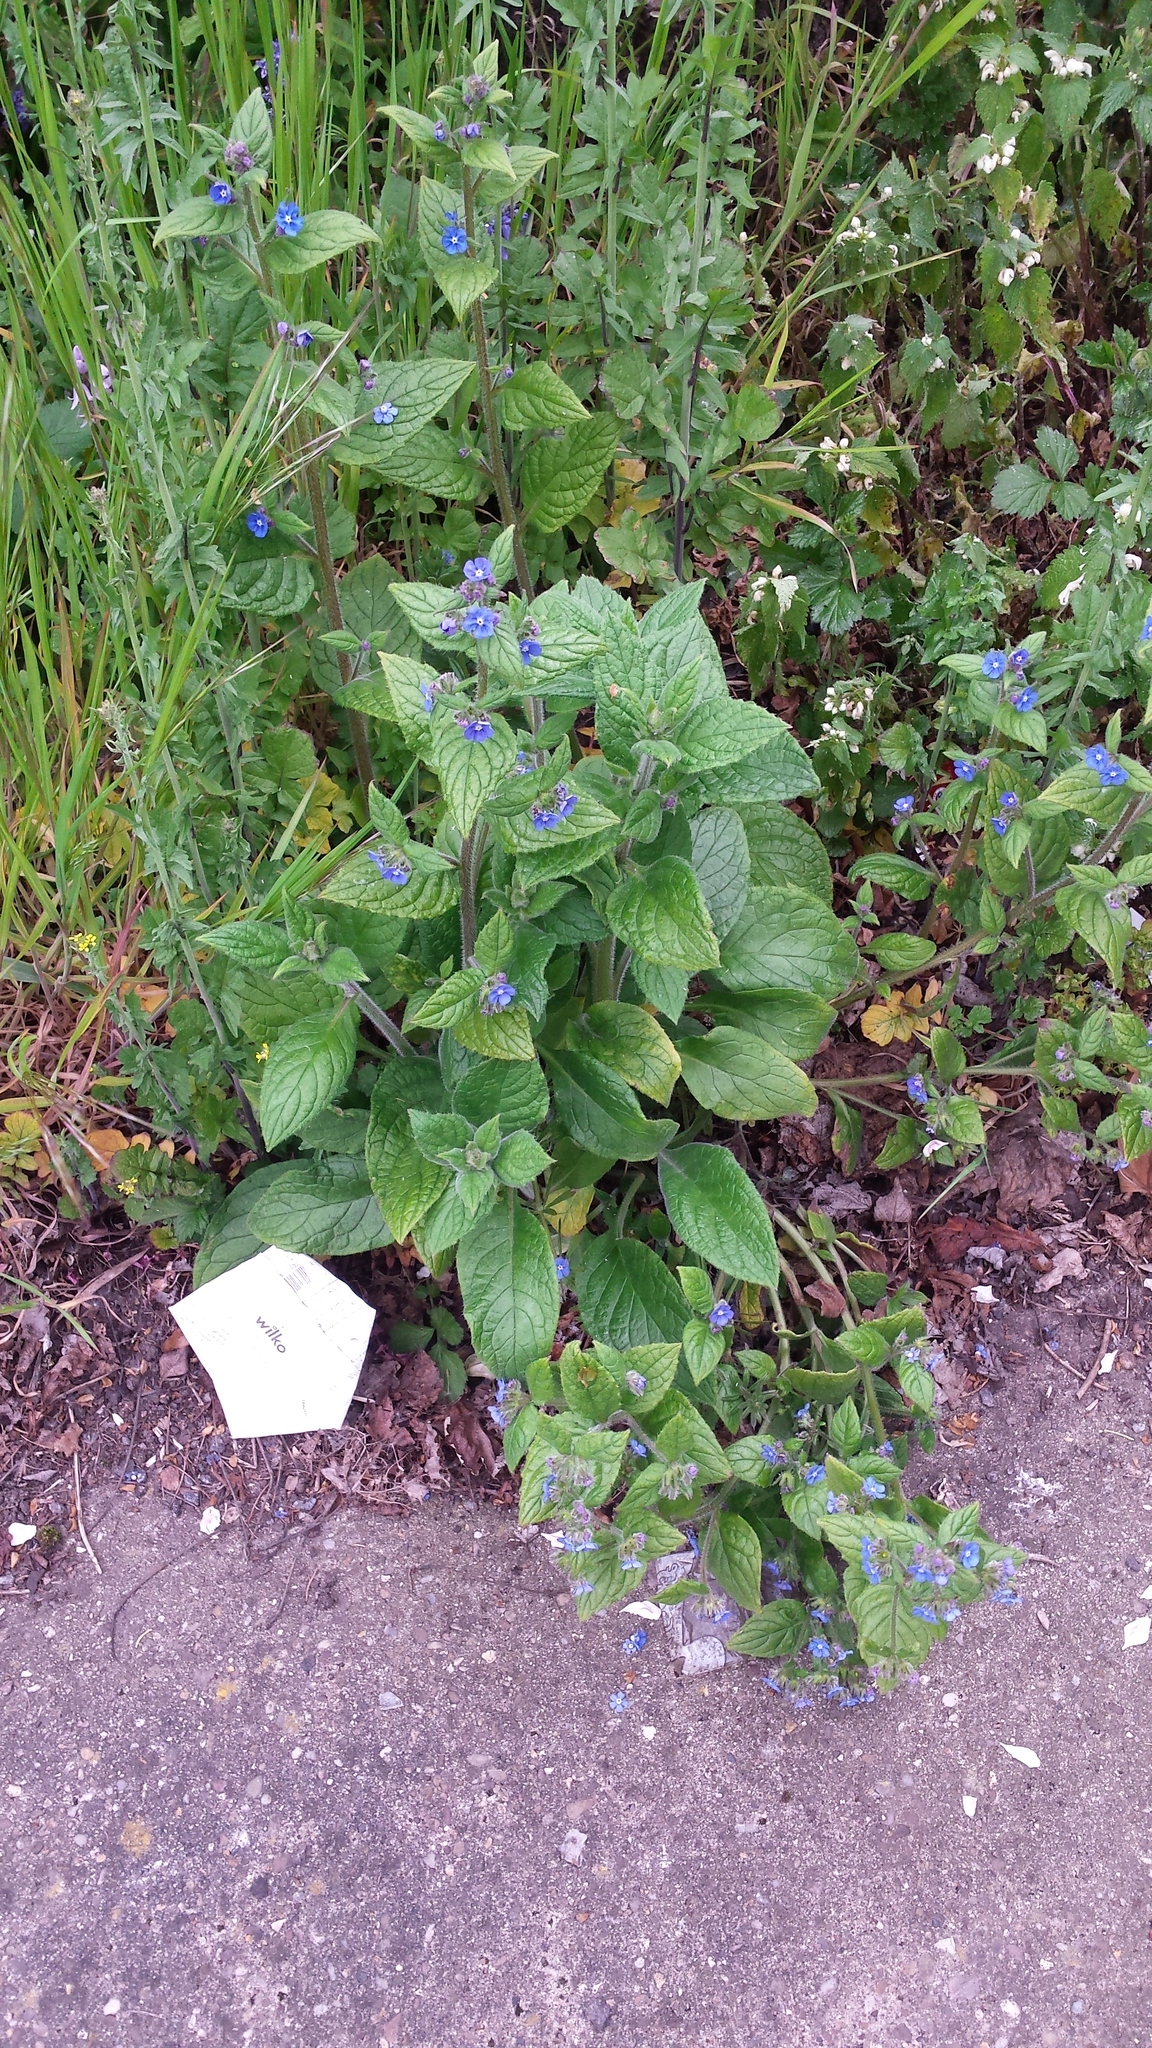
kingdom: Plantae
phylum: Tracheophyta
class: Magnoliopsida
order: Boraginales
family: Boraginaceae
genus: Pentaglottis
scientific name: Pentaglottis sempervirens
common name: Green alkanet
